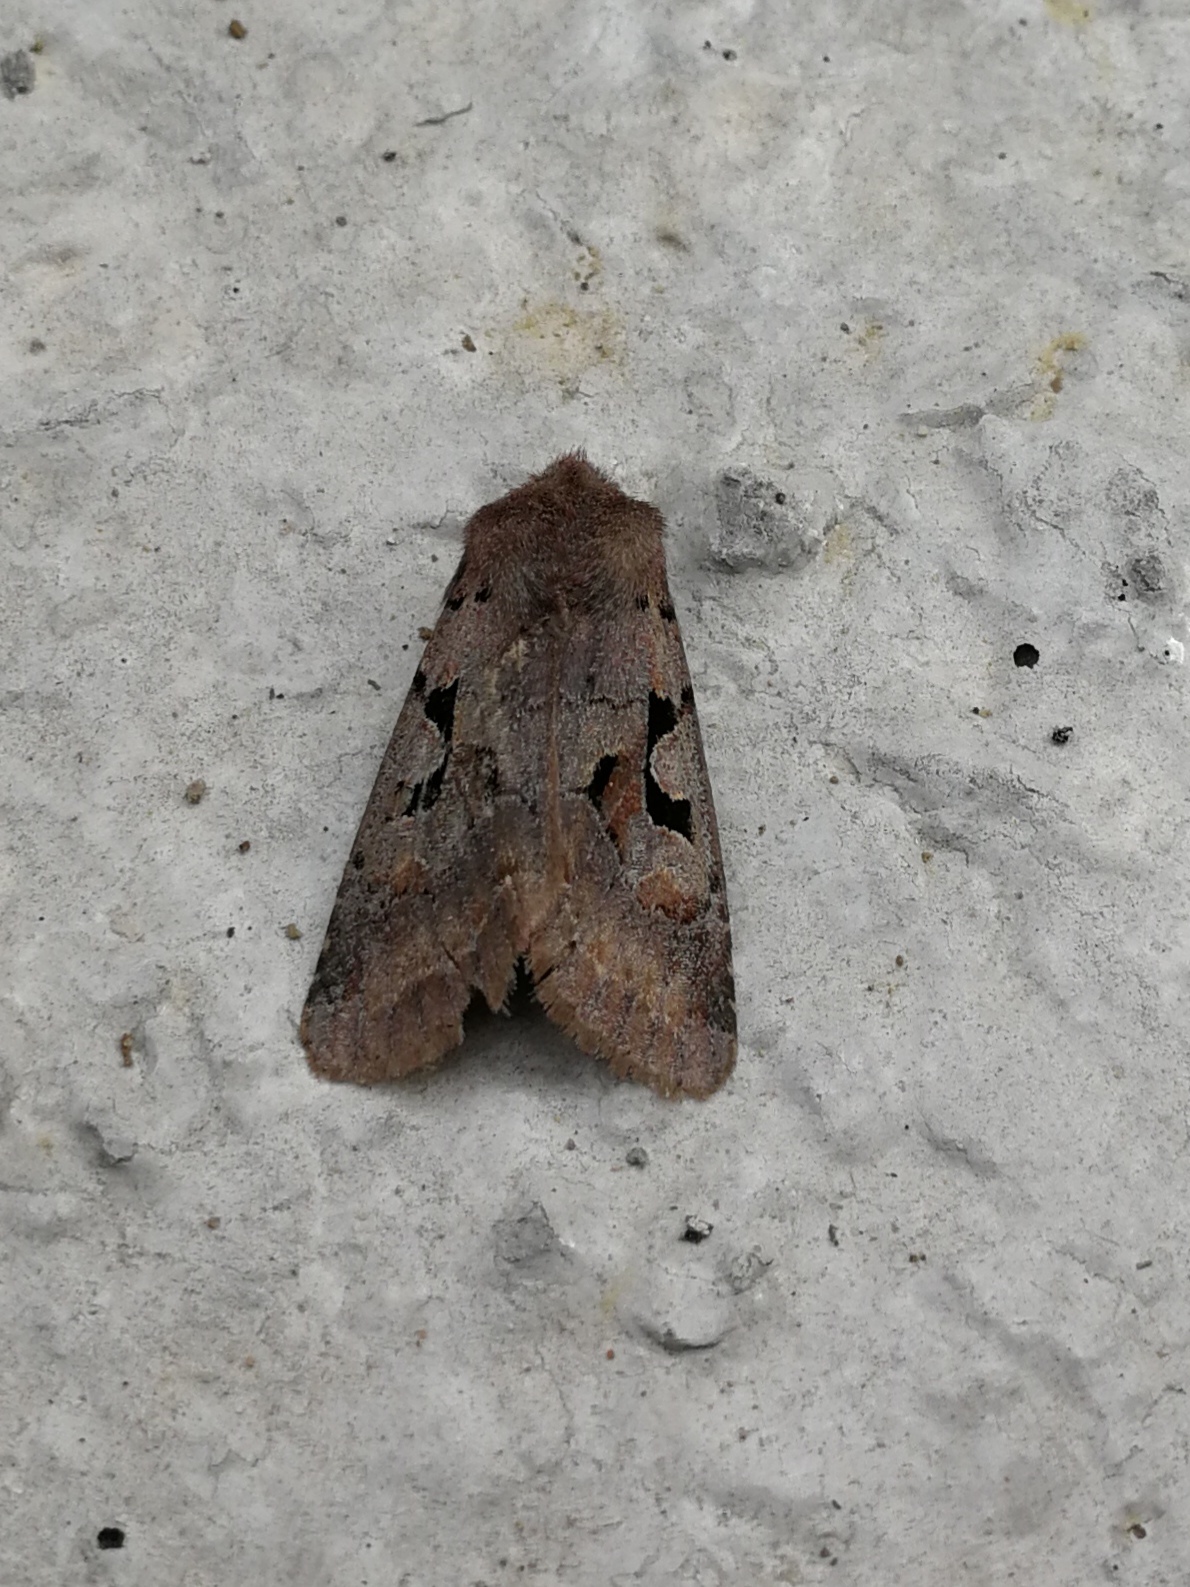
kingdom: Animalia
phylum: Arthropoda
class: Insecta
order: Lepidoptera
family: Noctuidae
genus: Orthosia
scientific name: Orthosia gothica
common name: Hebrew character
